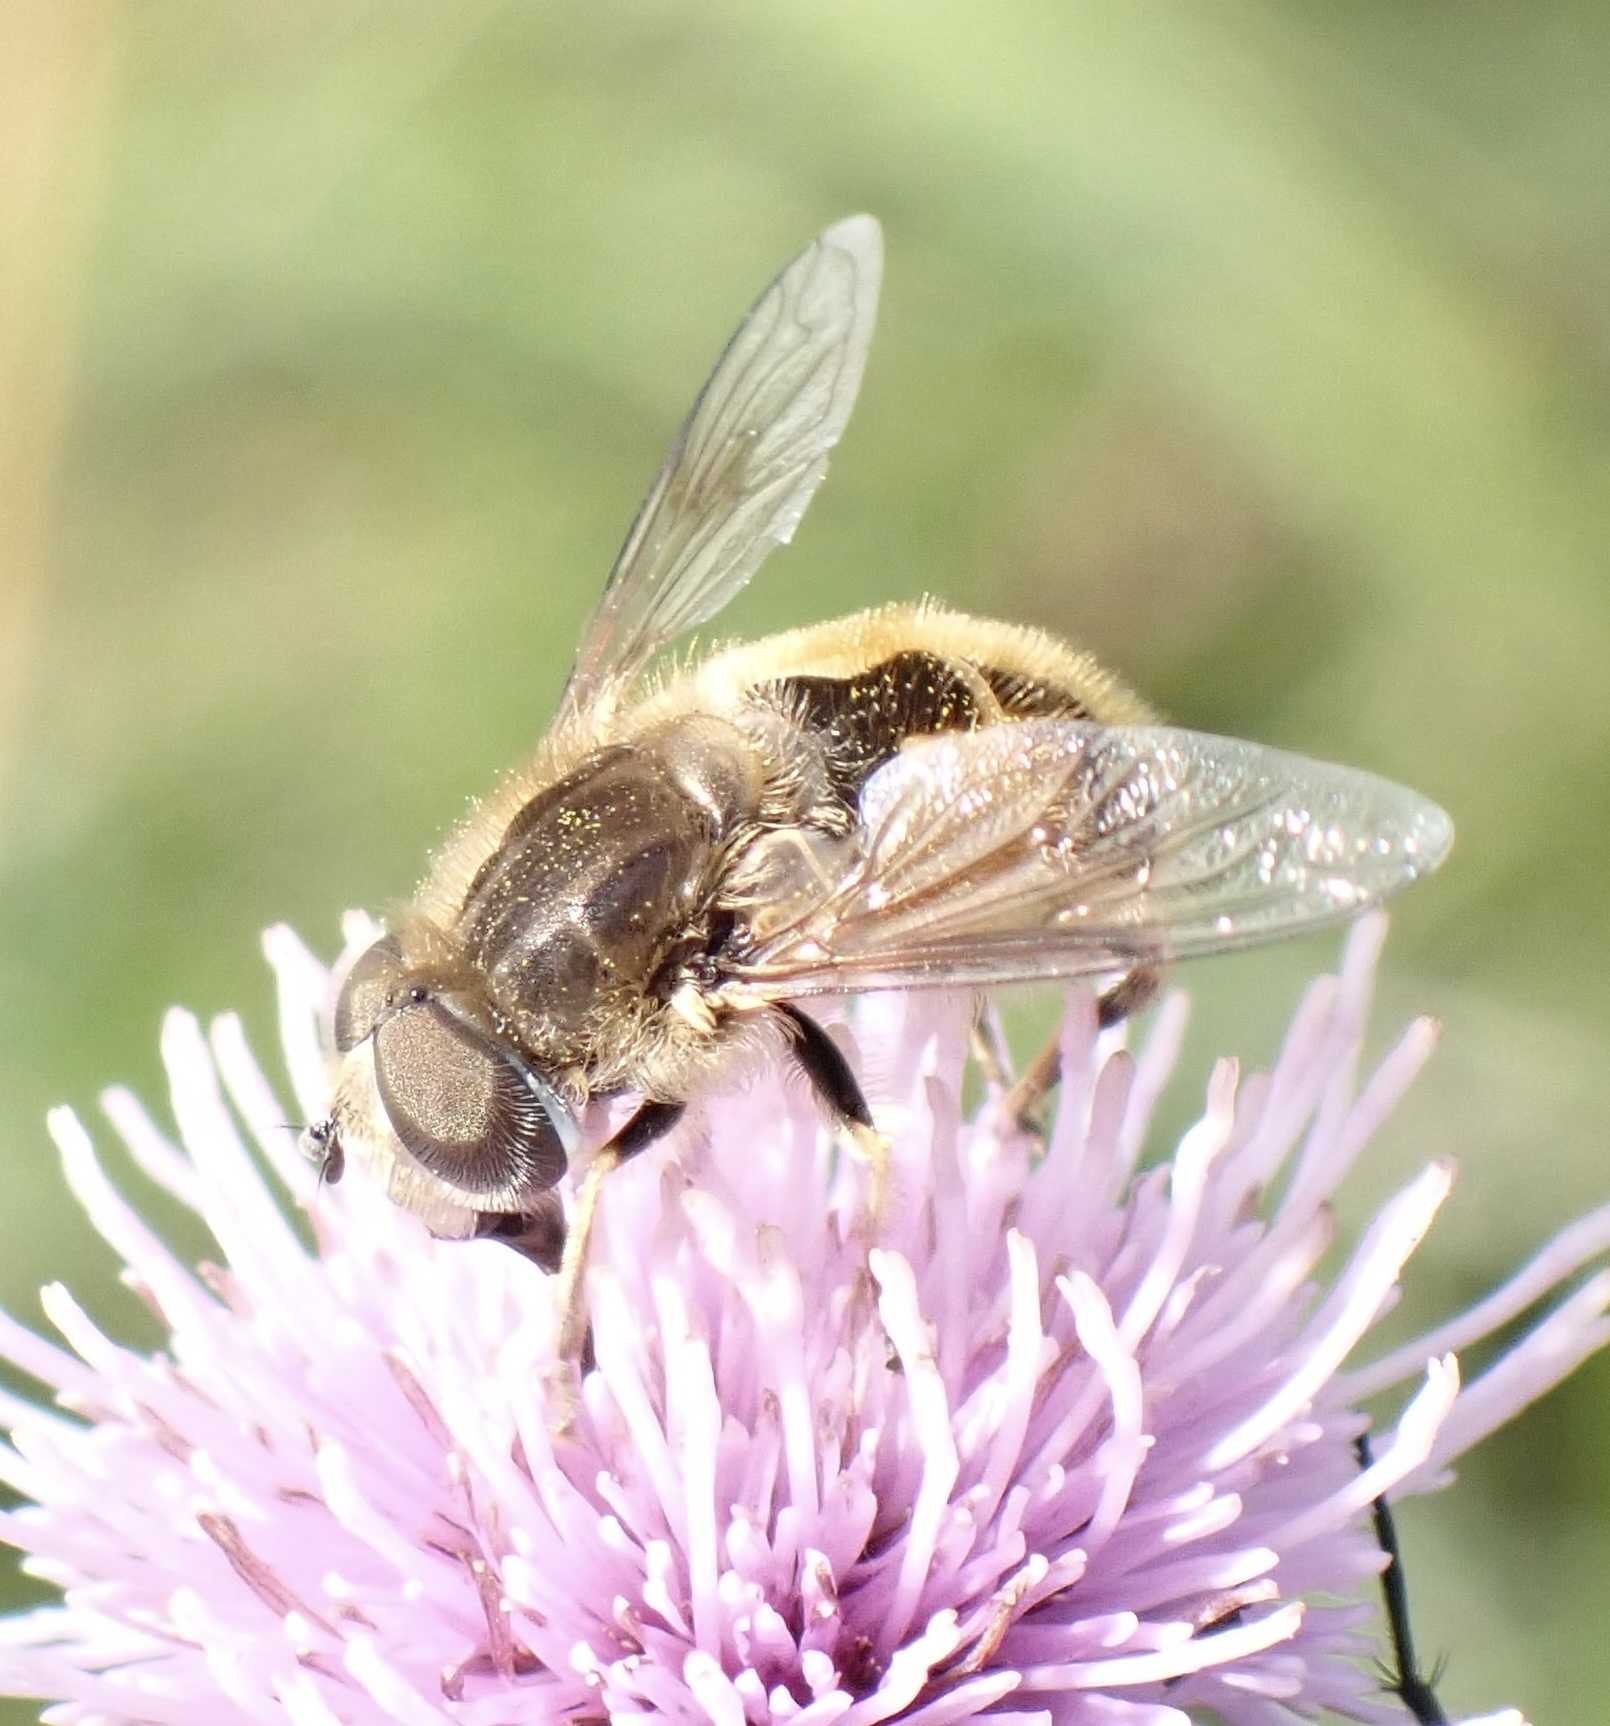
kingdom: Animalia
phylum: Arthropoda
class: Insecta
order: Diptera
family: Syrphidae
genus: Eristalis
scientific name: Eristalis abusivus
